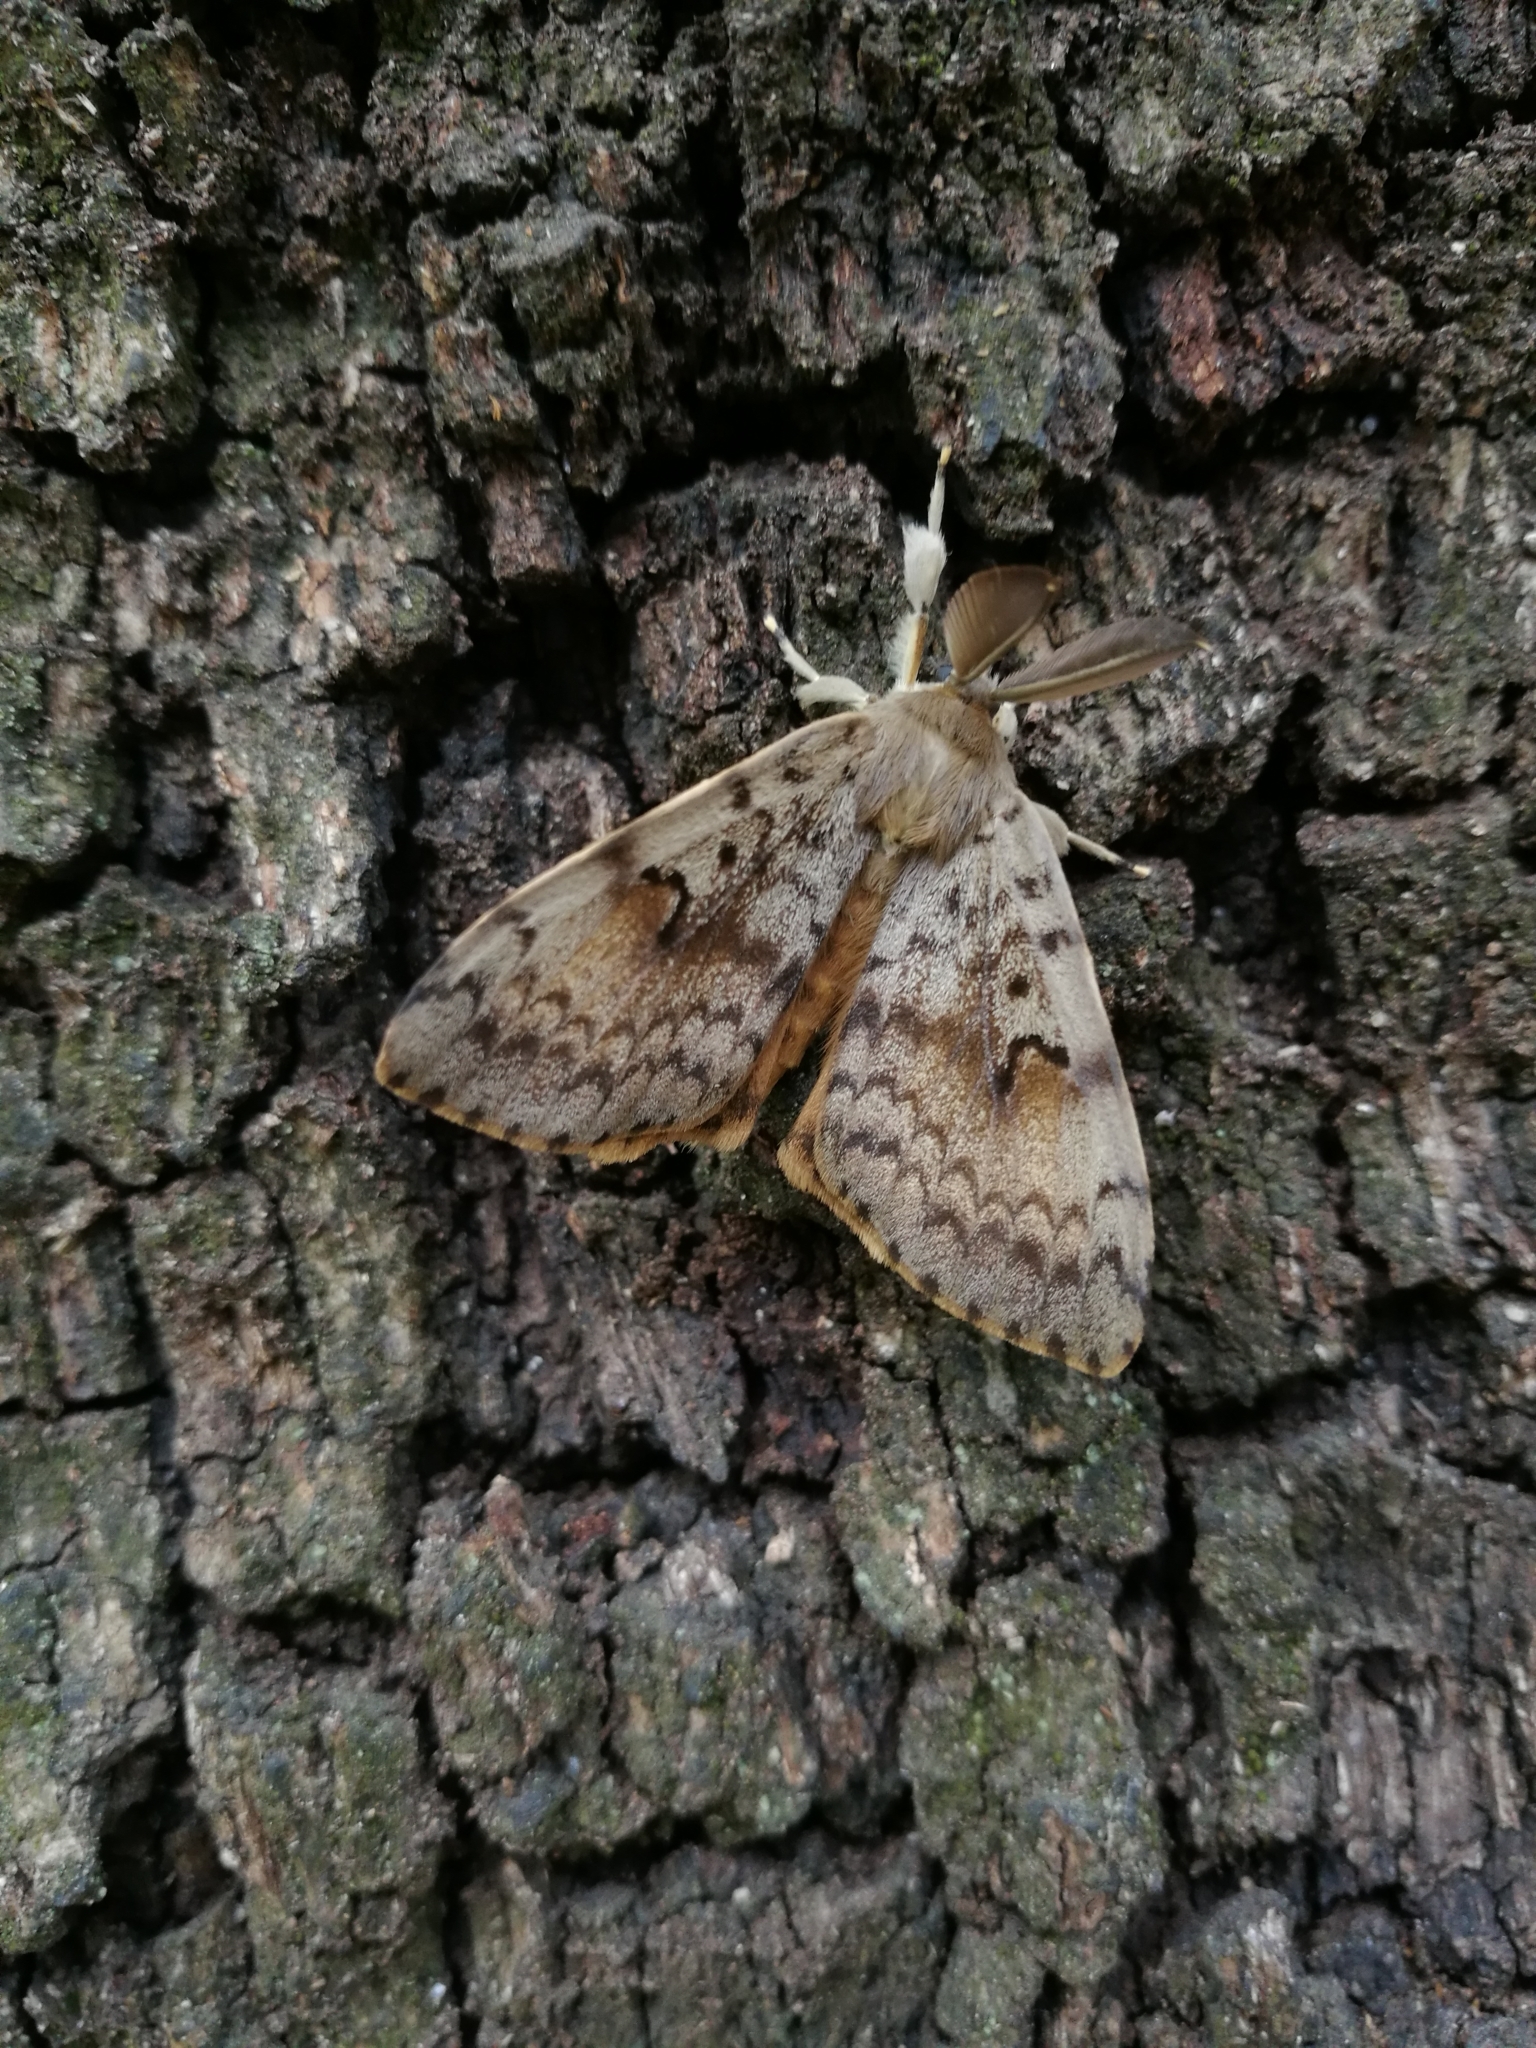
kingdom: Animalia
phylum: Arthropoda
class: Insecta
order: Lepidoptera
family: Erebidae
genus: Lymantria
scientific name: Lymantria dispar
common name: Gypsy moth
